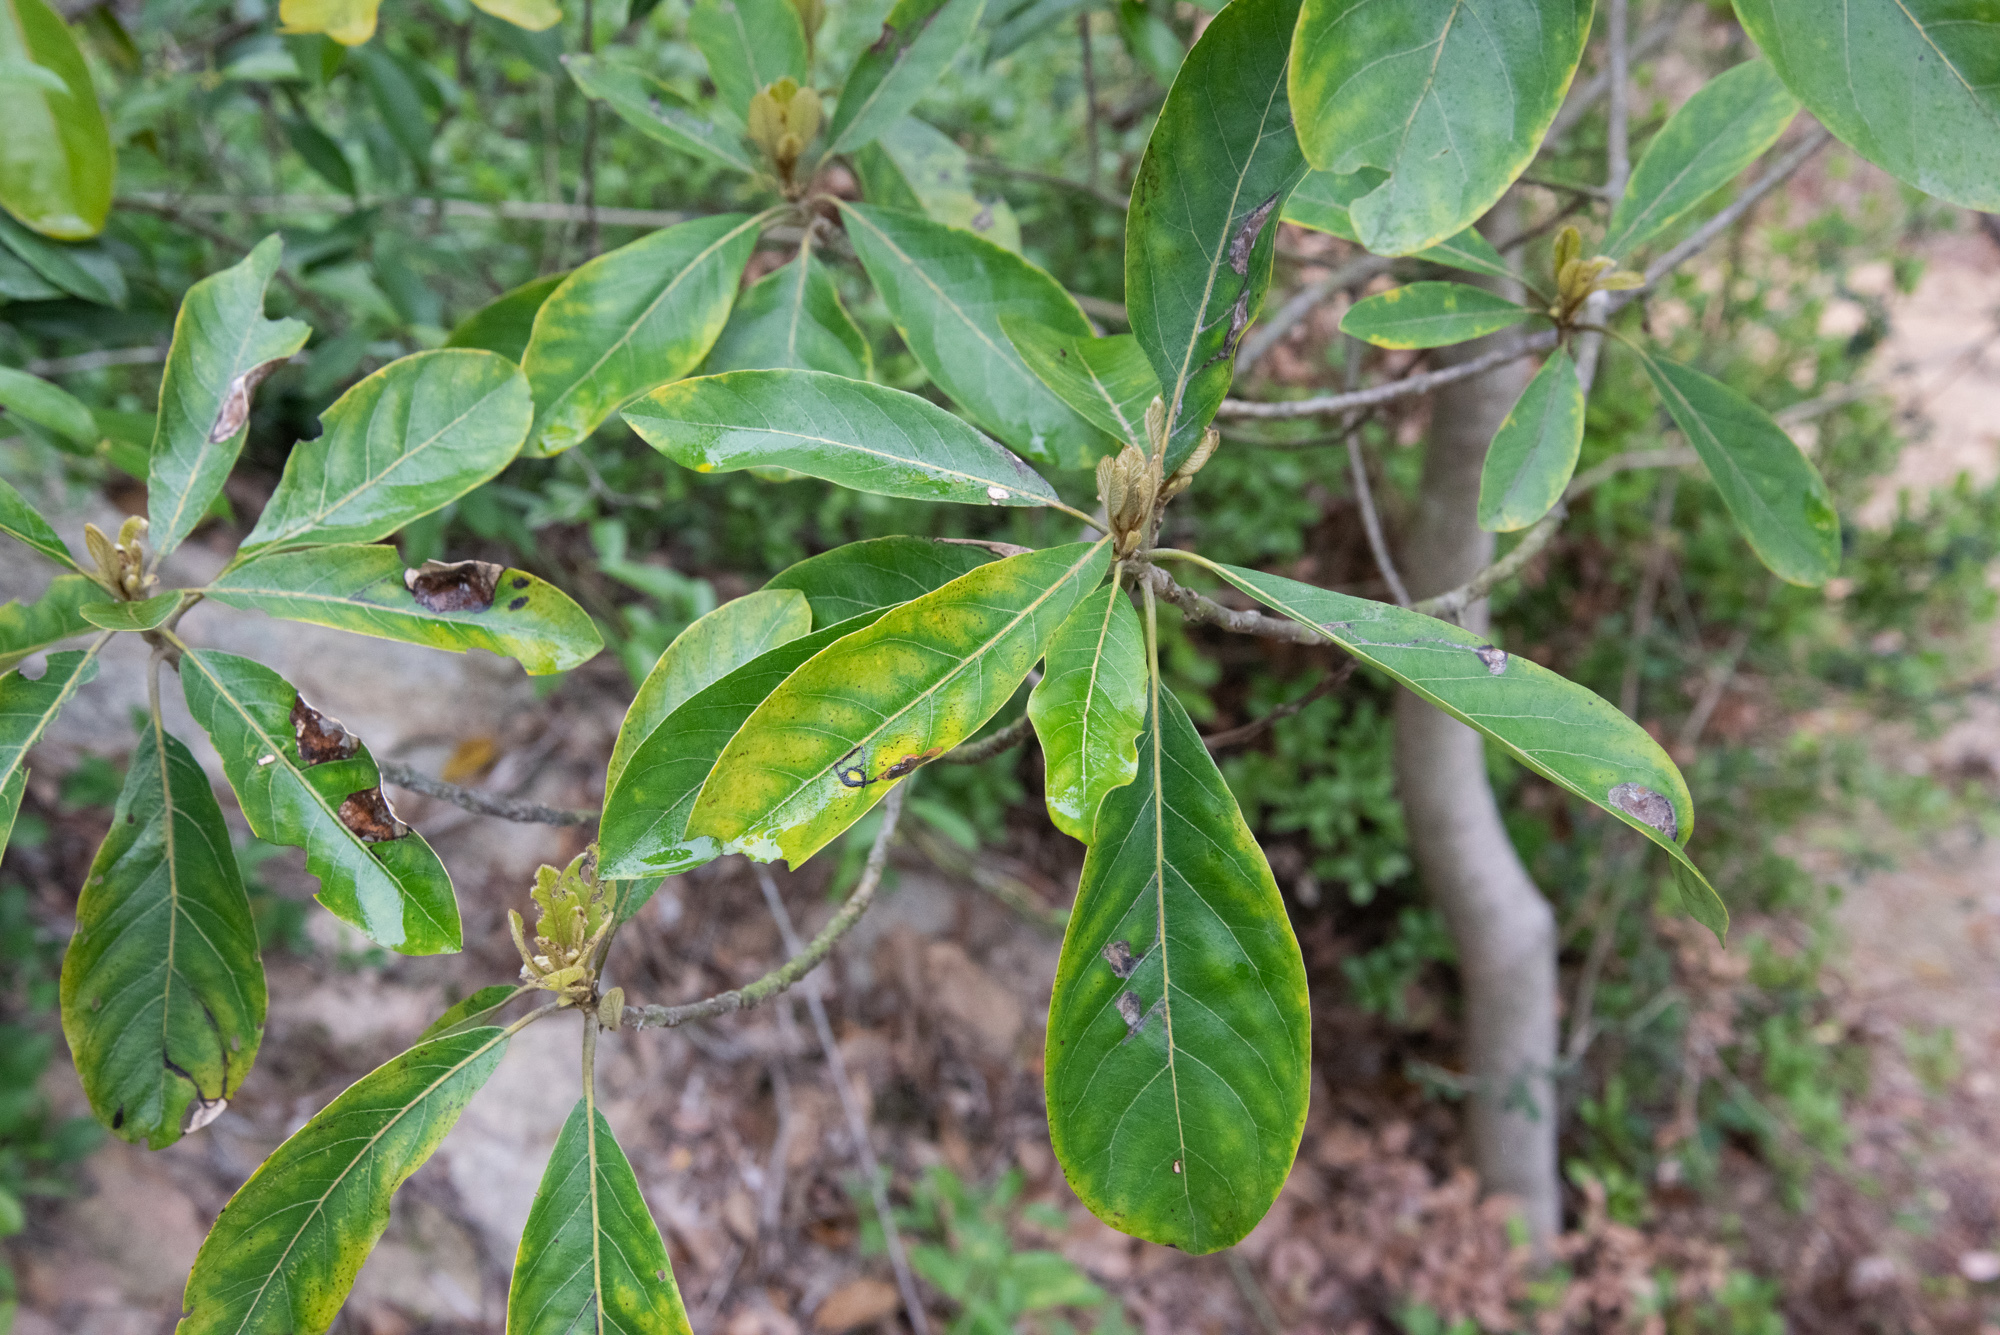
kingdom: Plantae
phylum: Tracheophyta
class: Magnoliopsida
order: Laurales
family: Lauraceae
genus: Litsea
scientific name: Litsea glutinosa
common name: Indian-laurel
